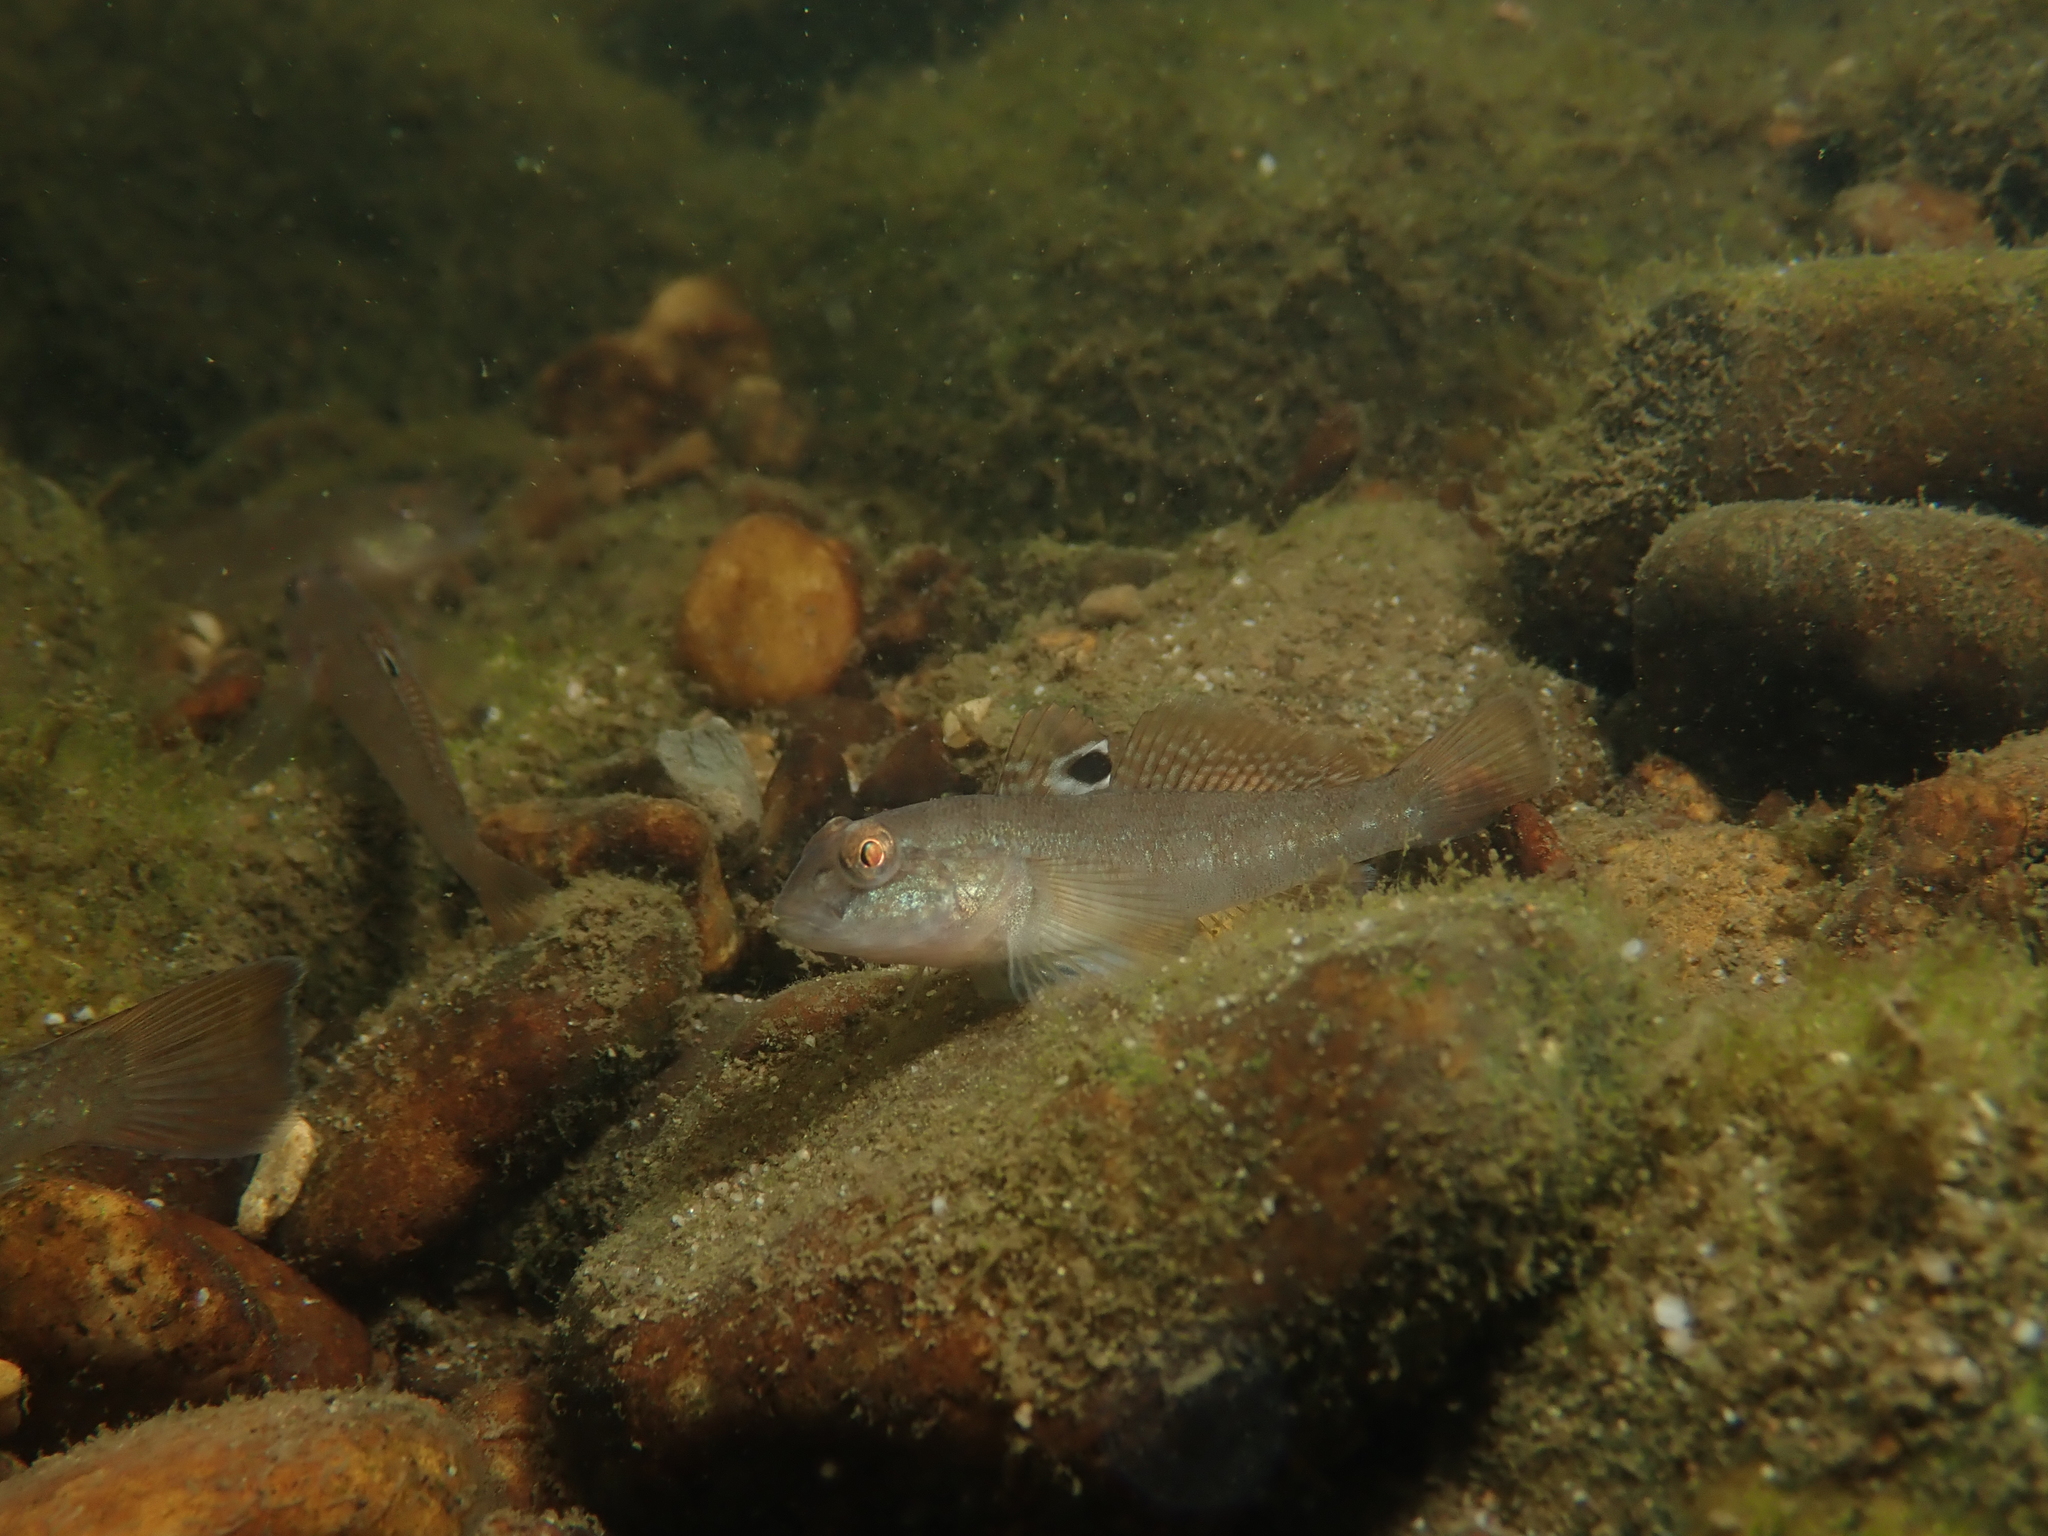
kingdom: Animalia
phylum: Chordata
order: Perciformes
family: Gobiidae
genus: Neogobius
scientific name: Neogobius melanostomus
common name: Round goby
